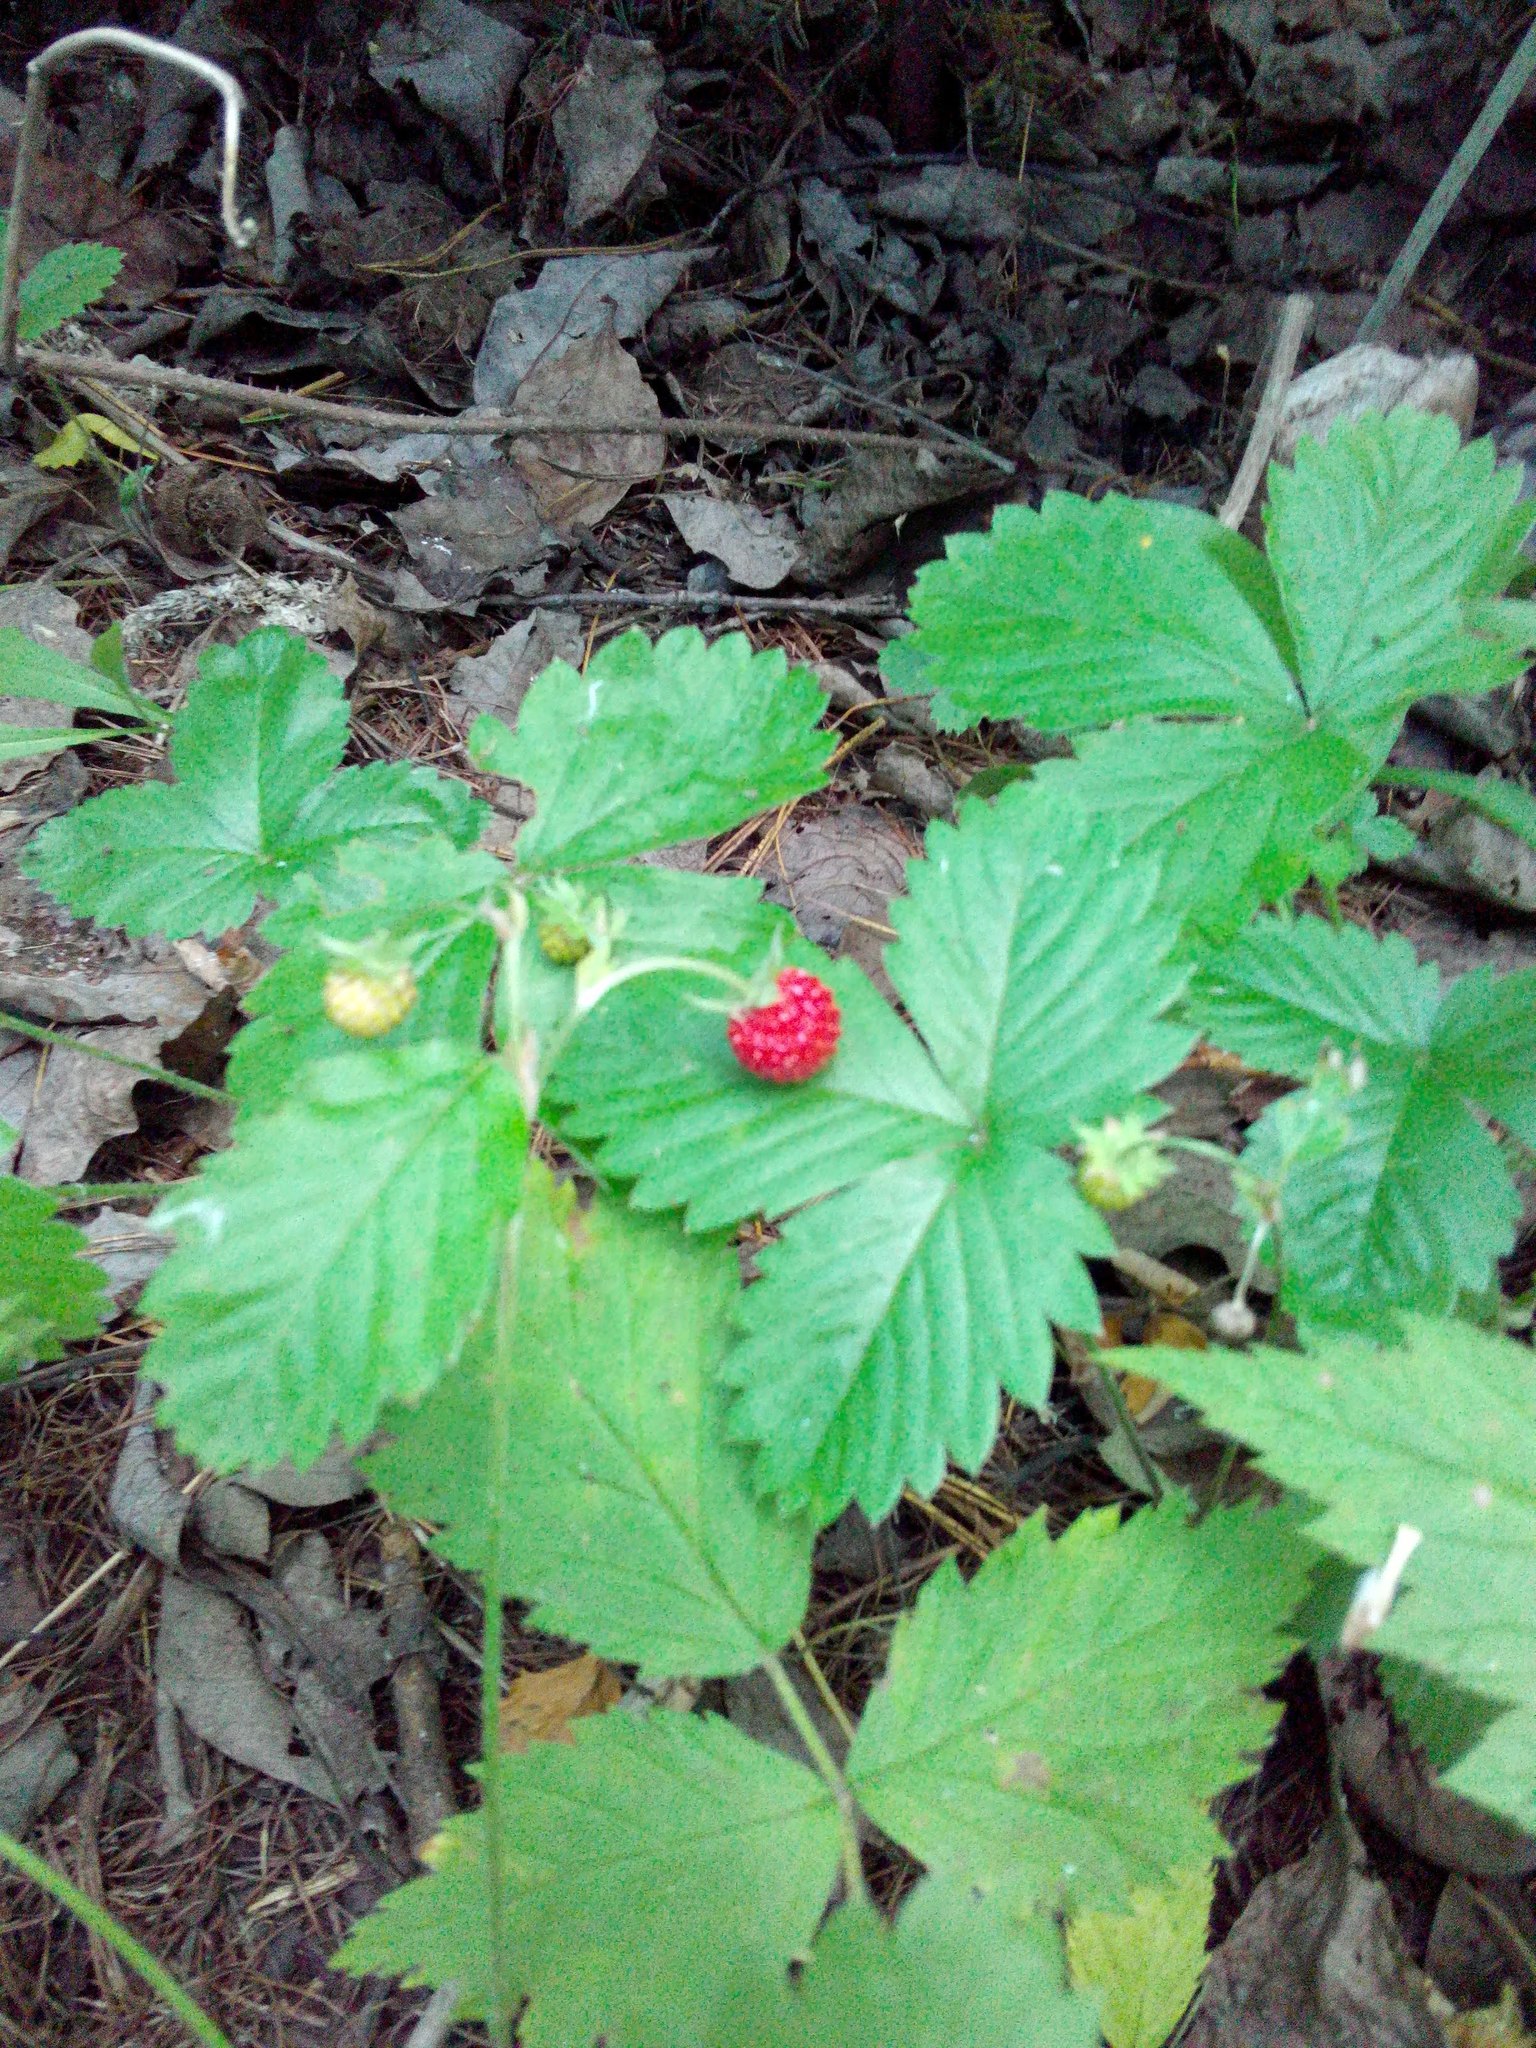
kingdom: Plantae
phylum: Tracheophyta
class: Magnoliopsida
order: Rosales
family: Rosaceae
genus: Fragaria
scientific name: Fragaria vesca
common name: Wild strawberry
